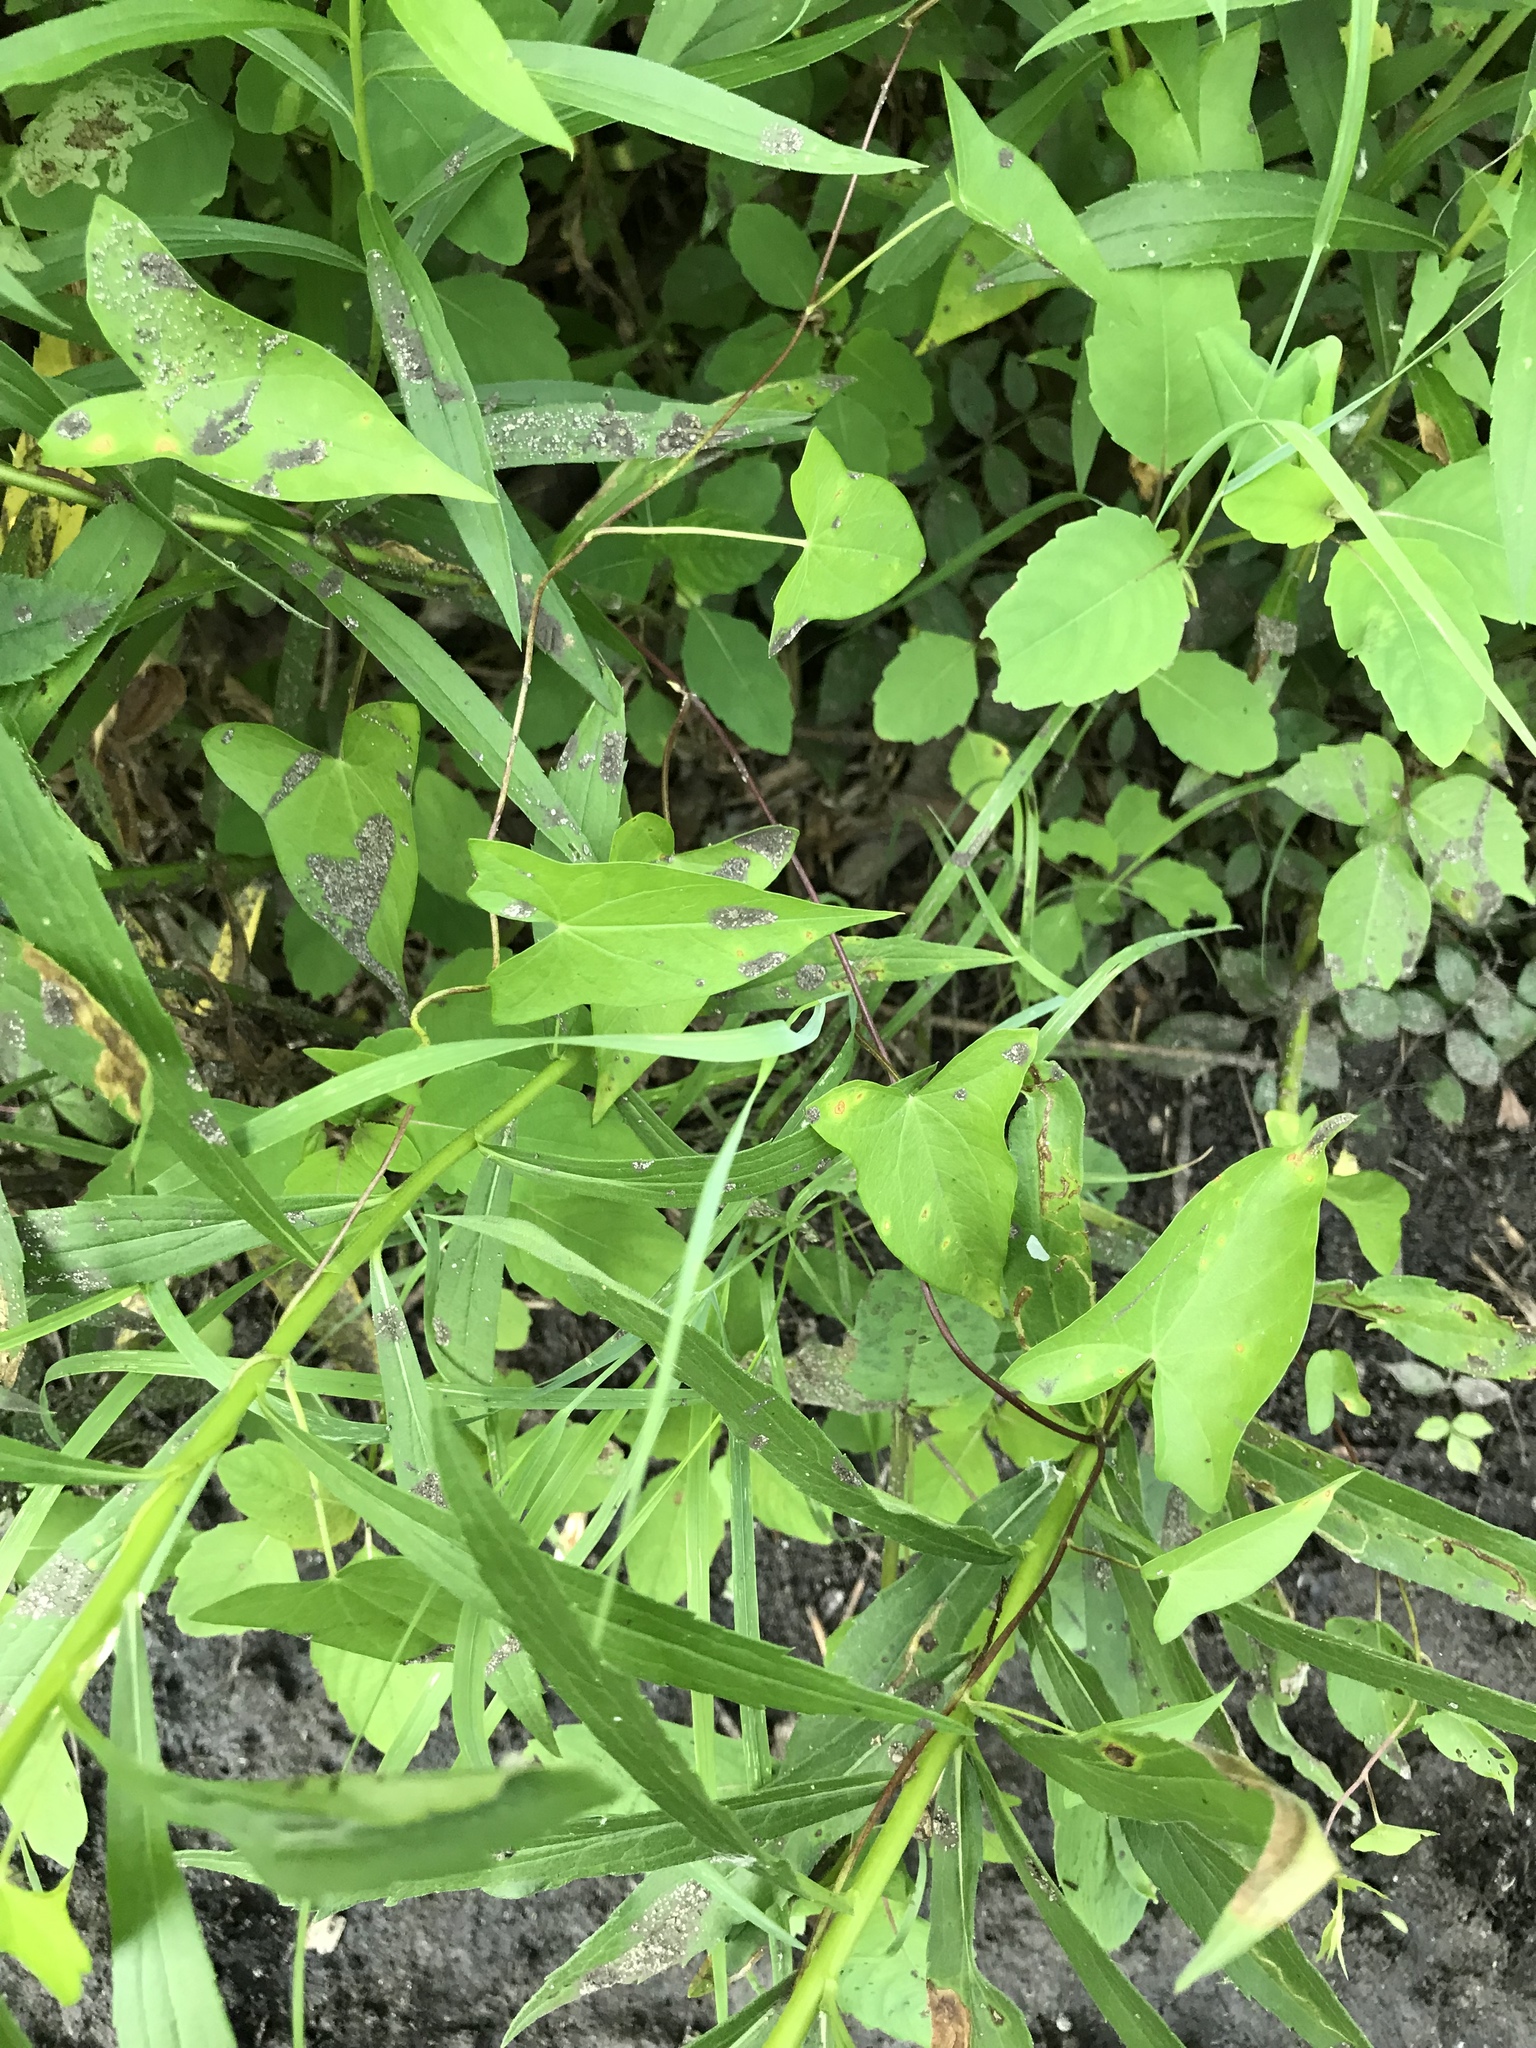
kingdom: Plantae
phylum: Tracheophyta
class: Magnoliopsida
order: Solanales
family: Convolvulaceae
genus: Calystegia
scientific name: Calystegia sepium
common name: Hedge bindweed
